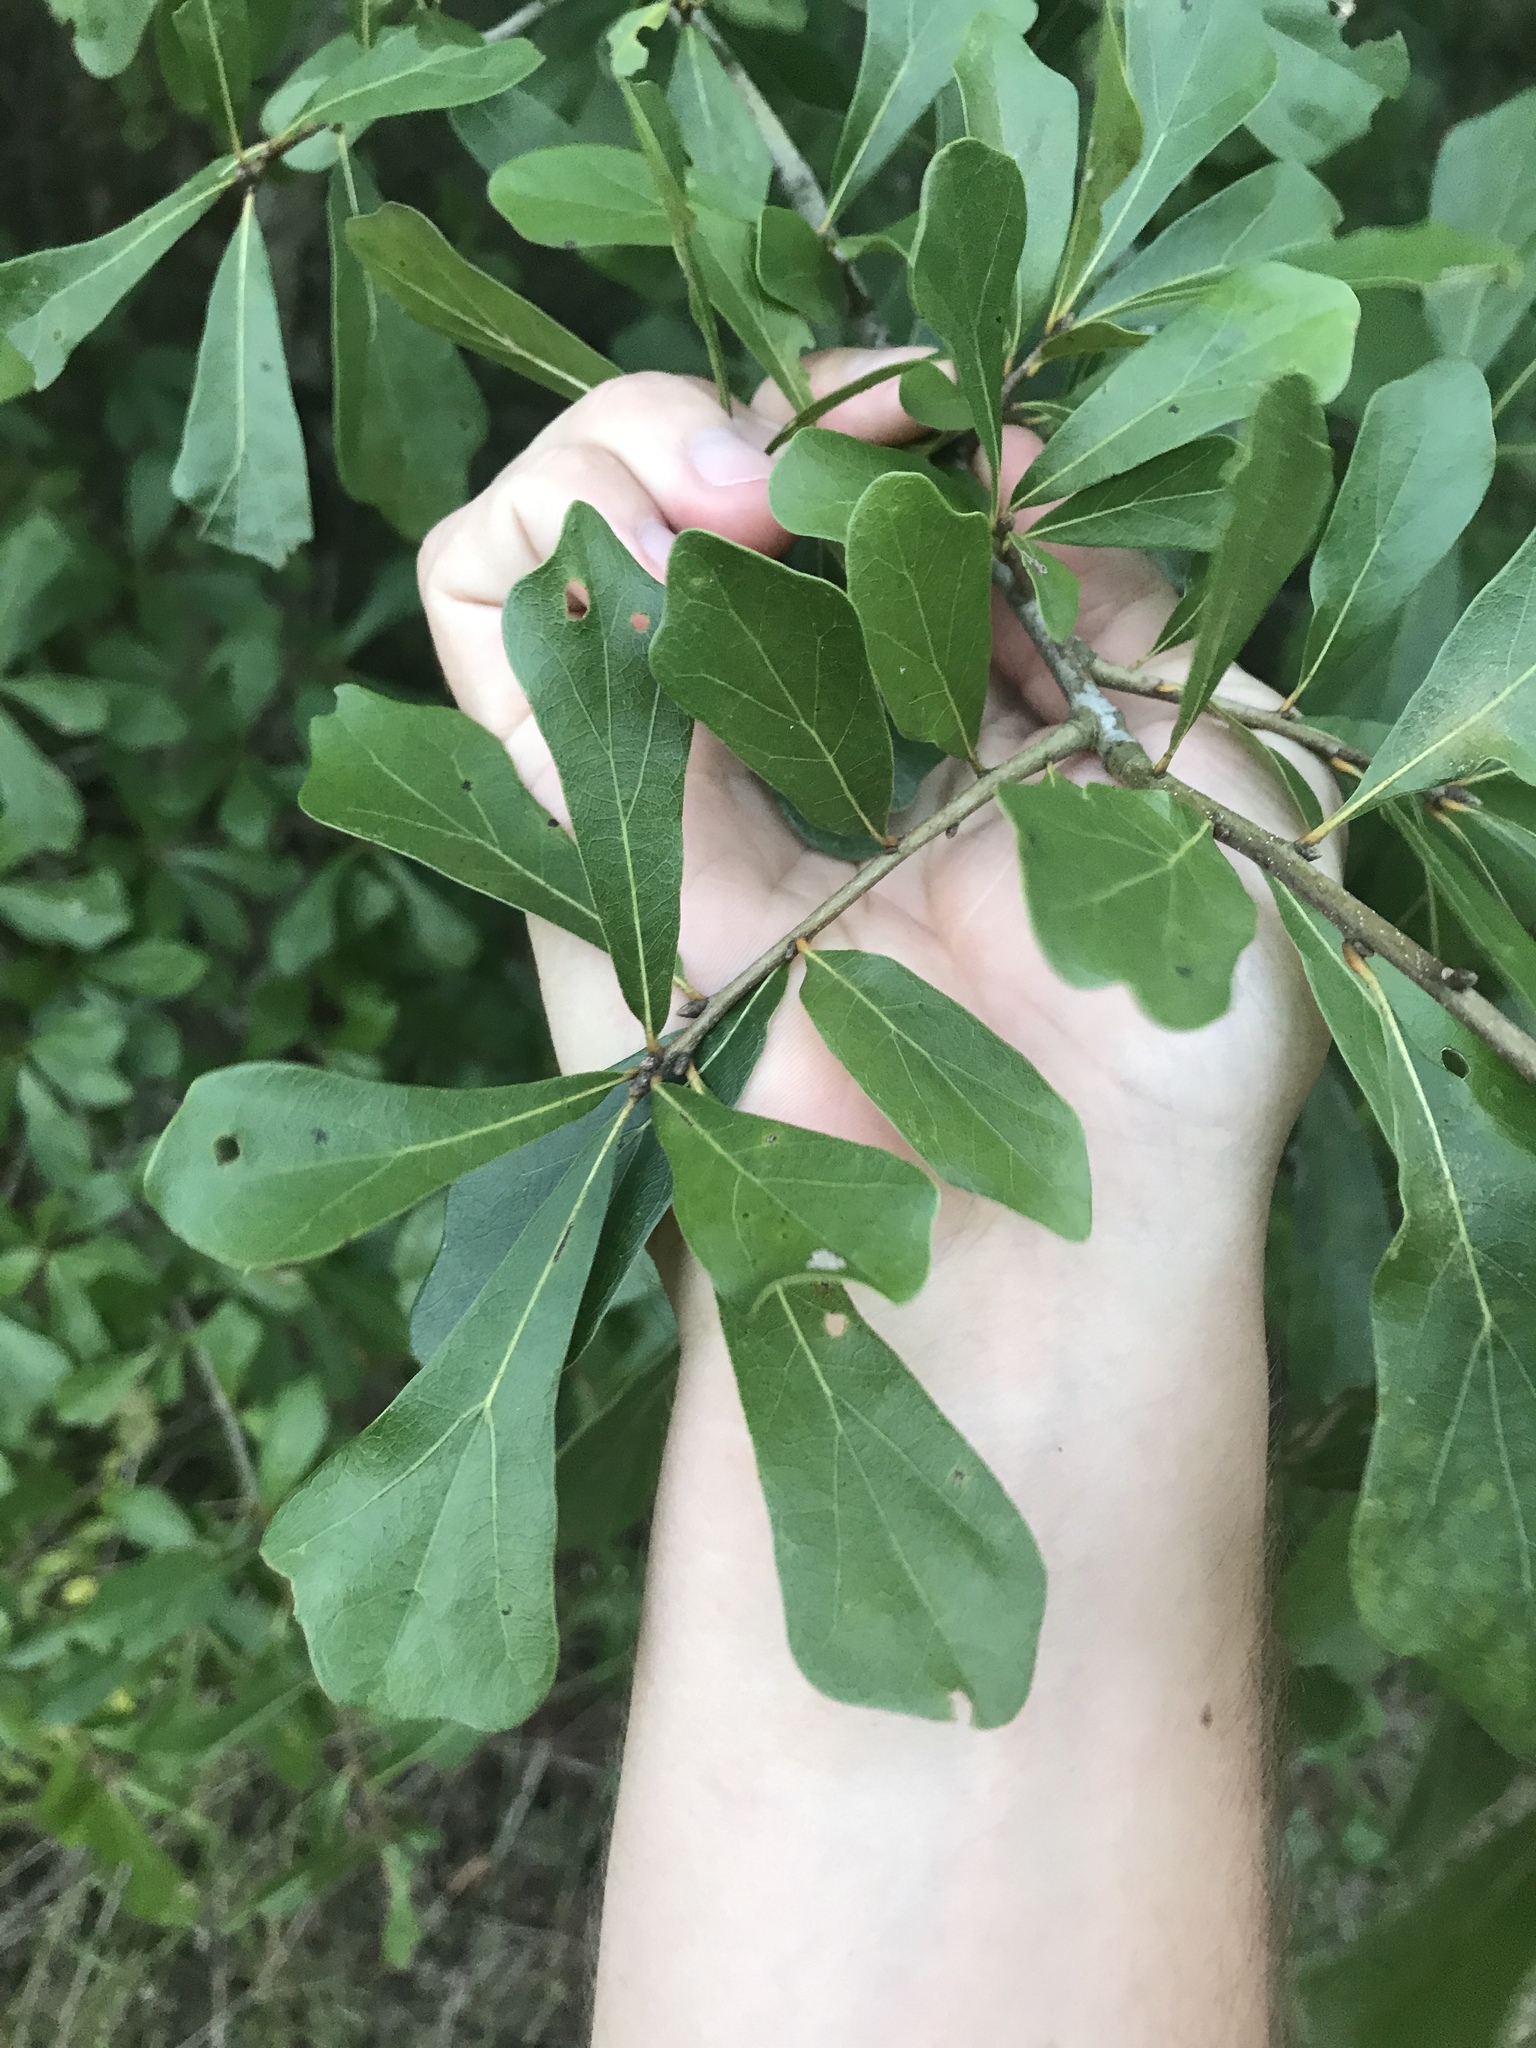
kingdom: Plantae
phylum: Tracheophyta
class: Magnoliopsida
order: Fagales
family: Fagaceae
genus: Quercus
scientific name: Quercus nigra
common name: Water oak
